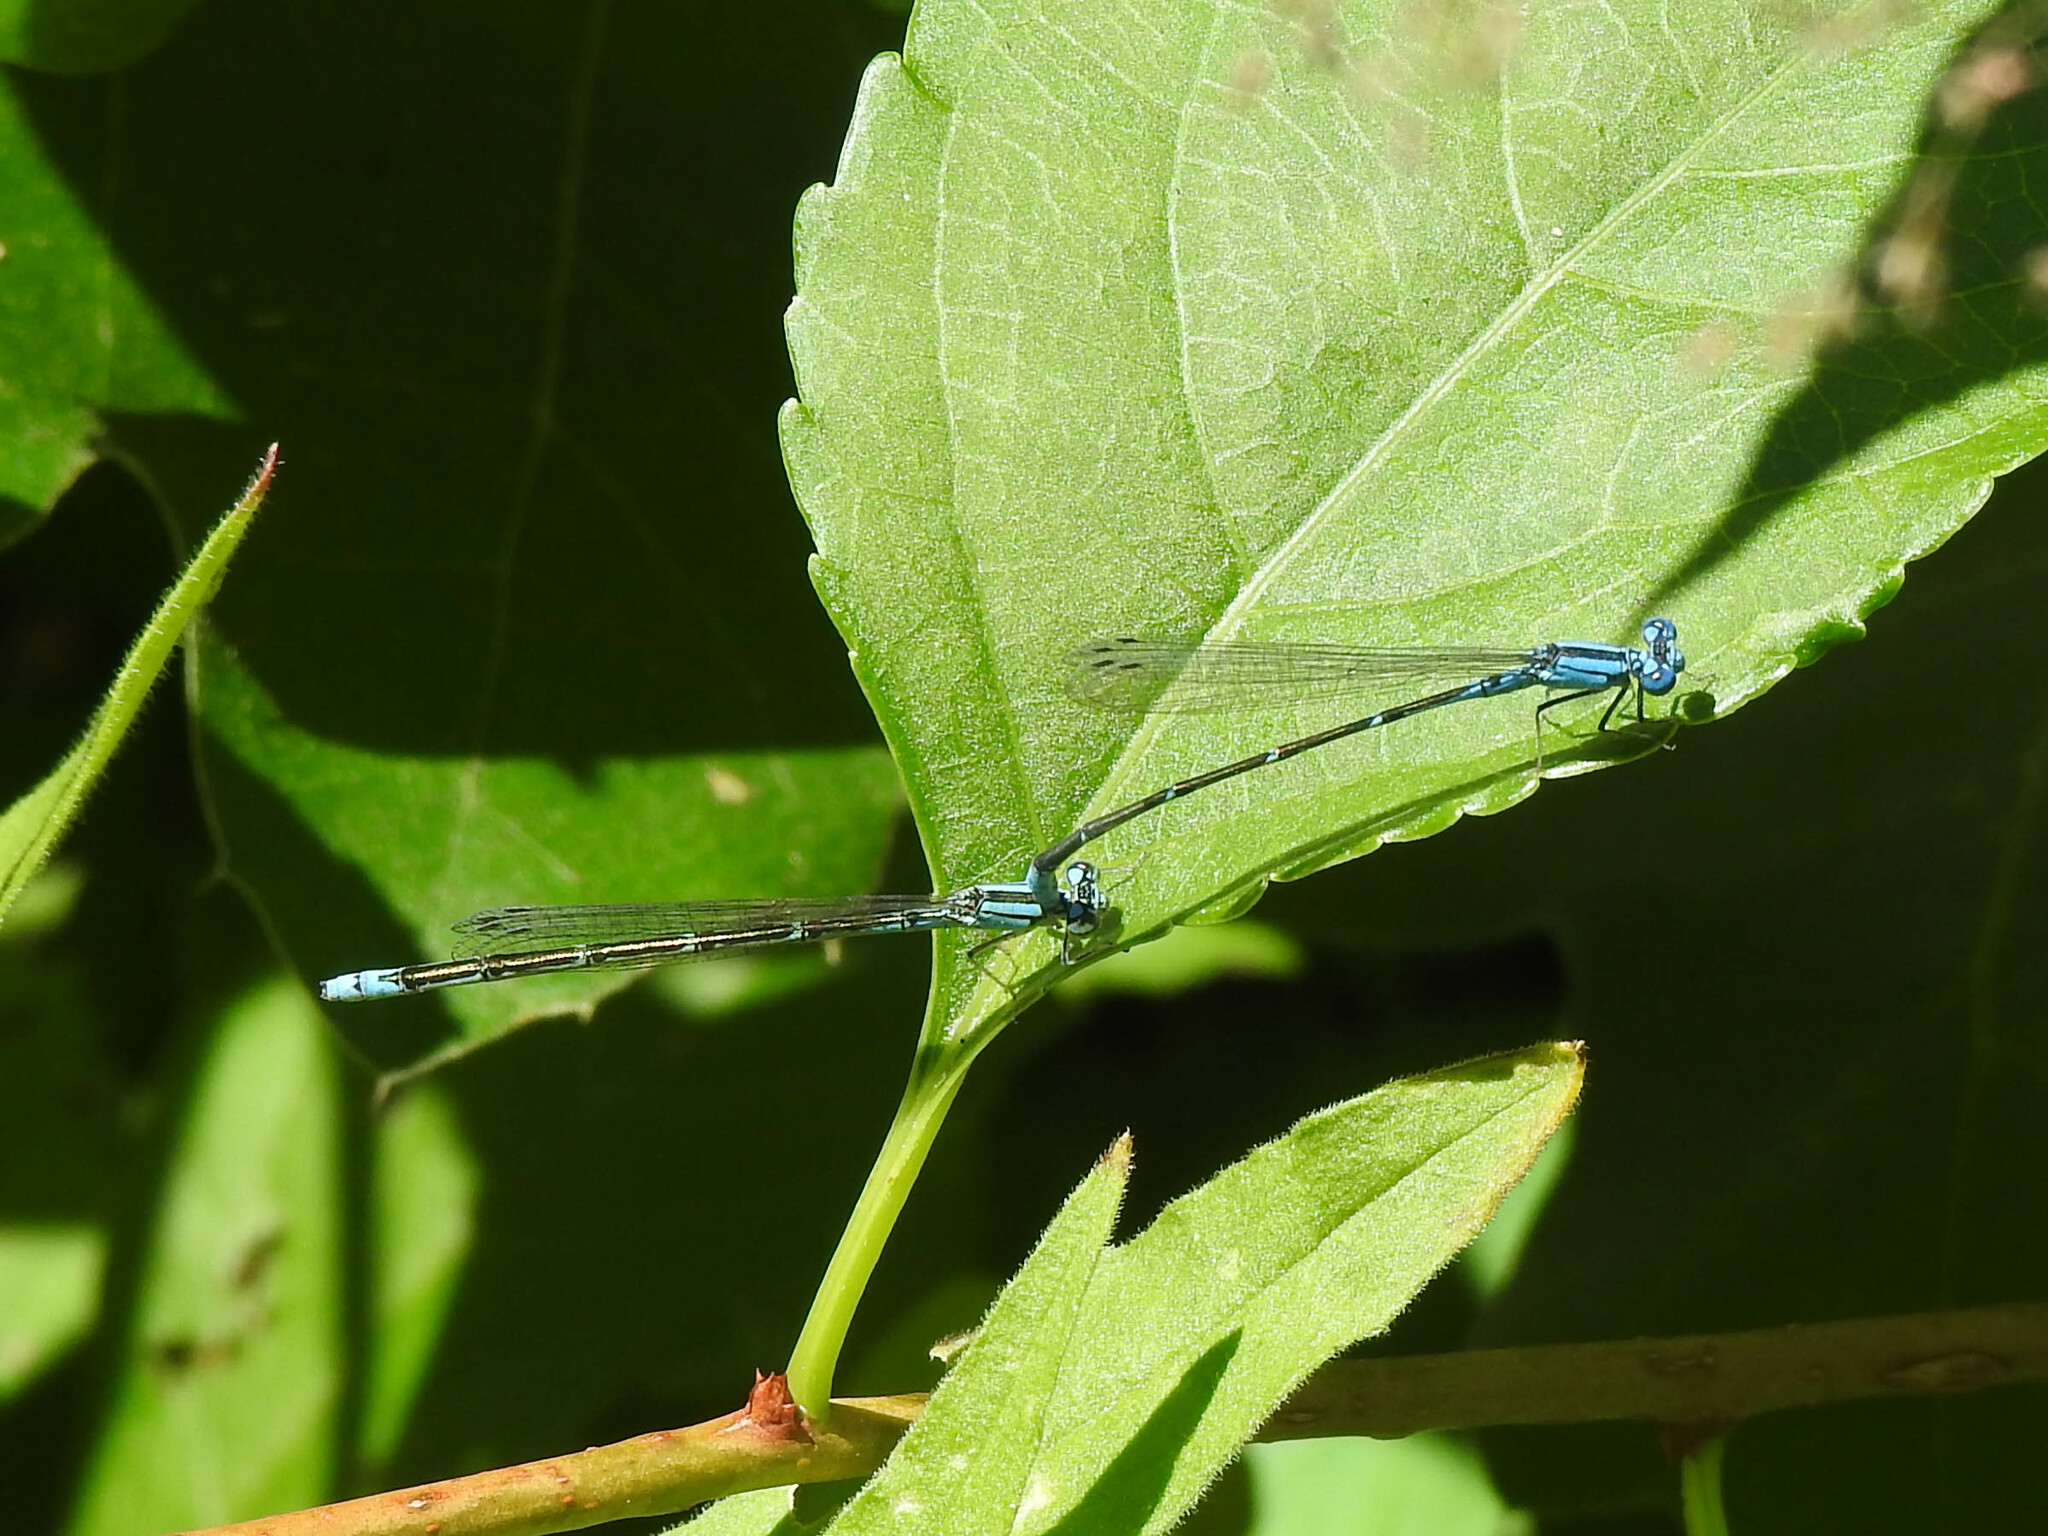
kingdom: Animalia
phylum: Arthropoda
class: Insecta
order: Odonata
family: Coenagrionidae
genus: Enallagma
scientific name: Enallagma traviatum
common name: Slender bluet
